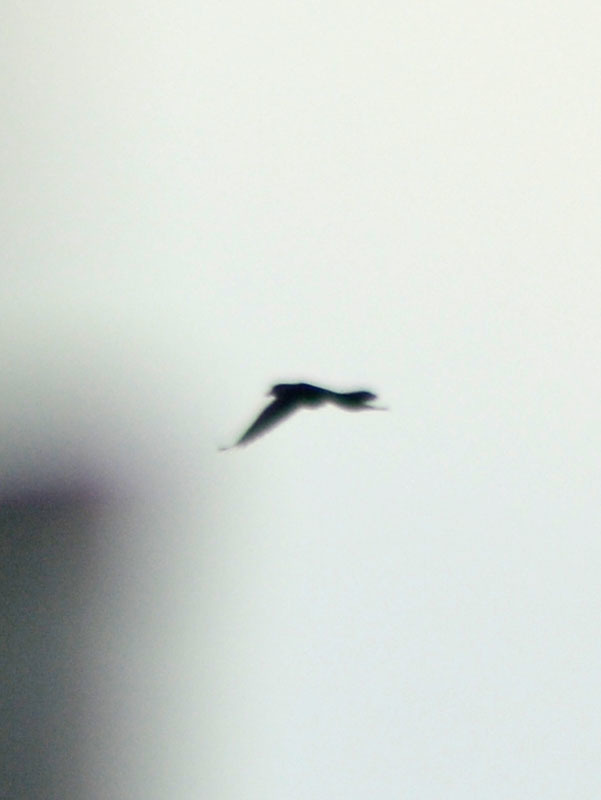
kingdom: Animalia
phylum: Chordata
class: Aves
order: Passeriformes
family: Icteridae
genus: Quiscalus
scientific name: Quiscalus mexicanus
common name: Great-tailed grackle
